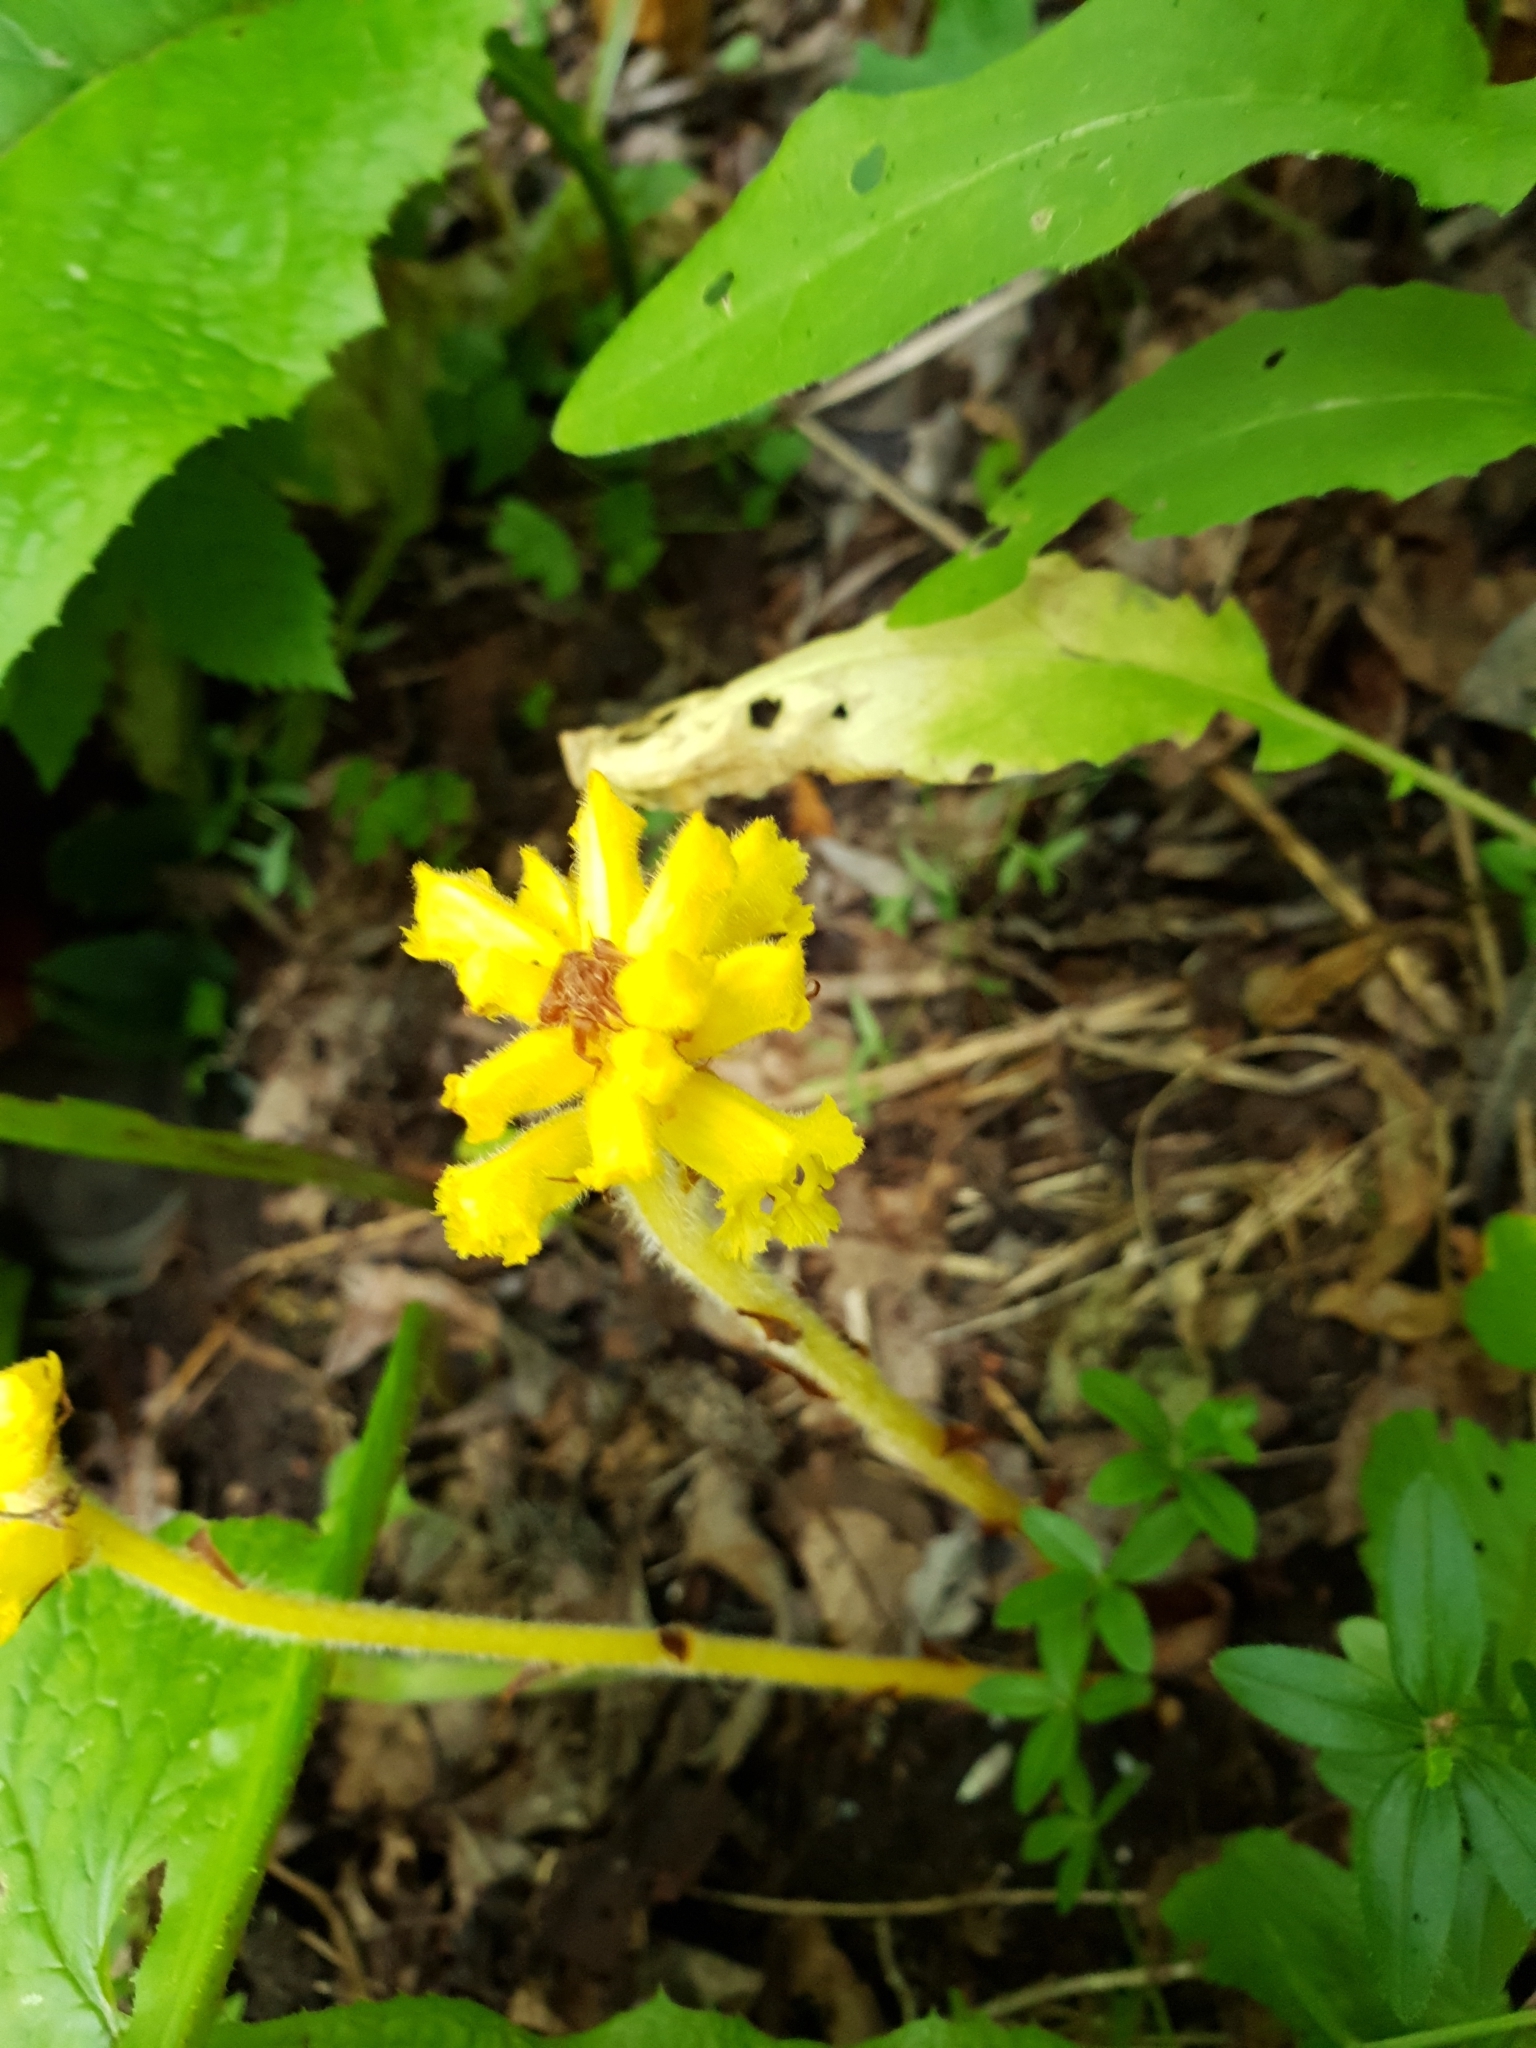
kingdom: Plantae
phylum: Tracheophyta
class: Magnoliopsida
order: Lamiales
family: Orobanchaceae
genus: Orobanche
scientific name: Orobanche flava
